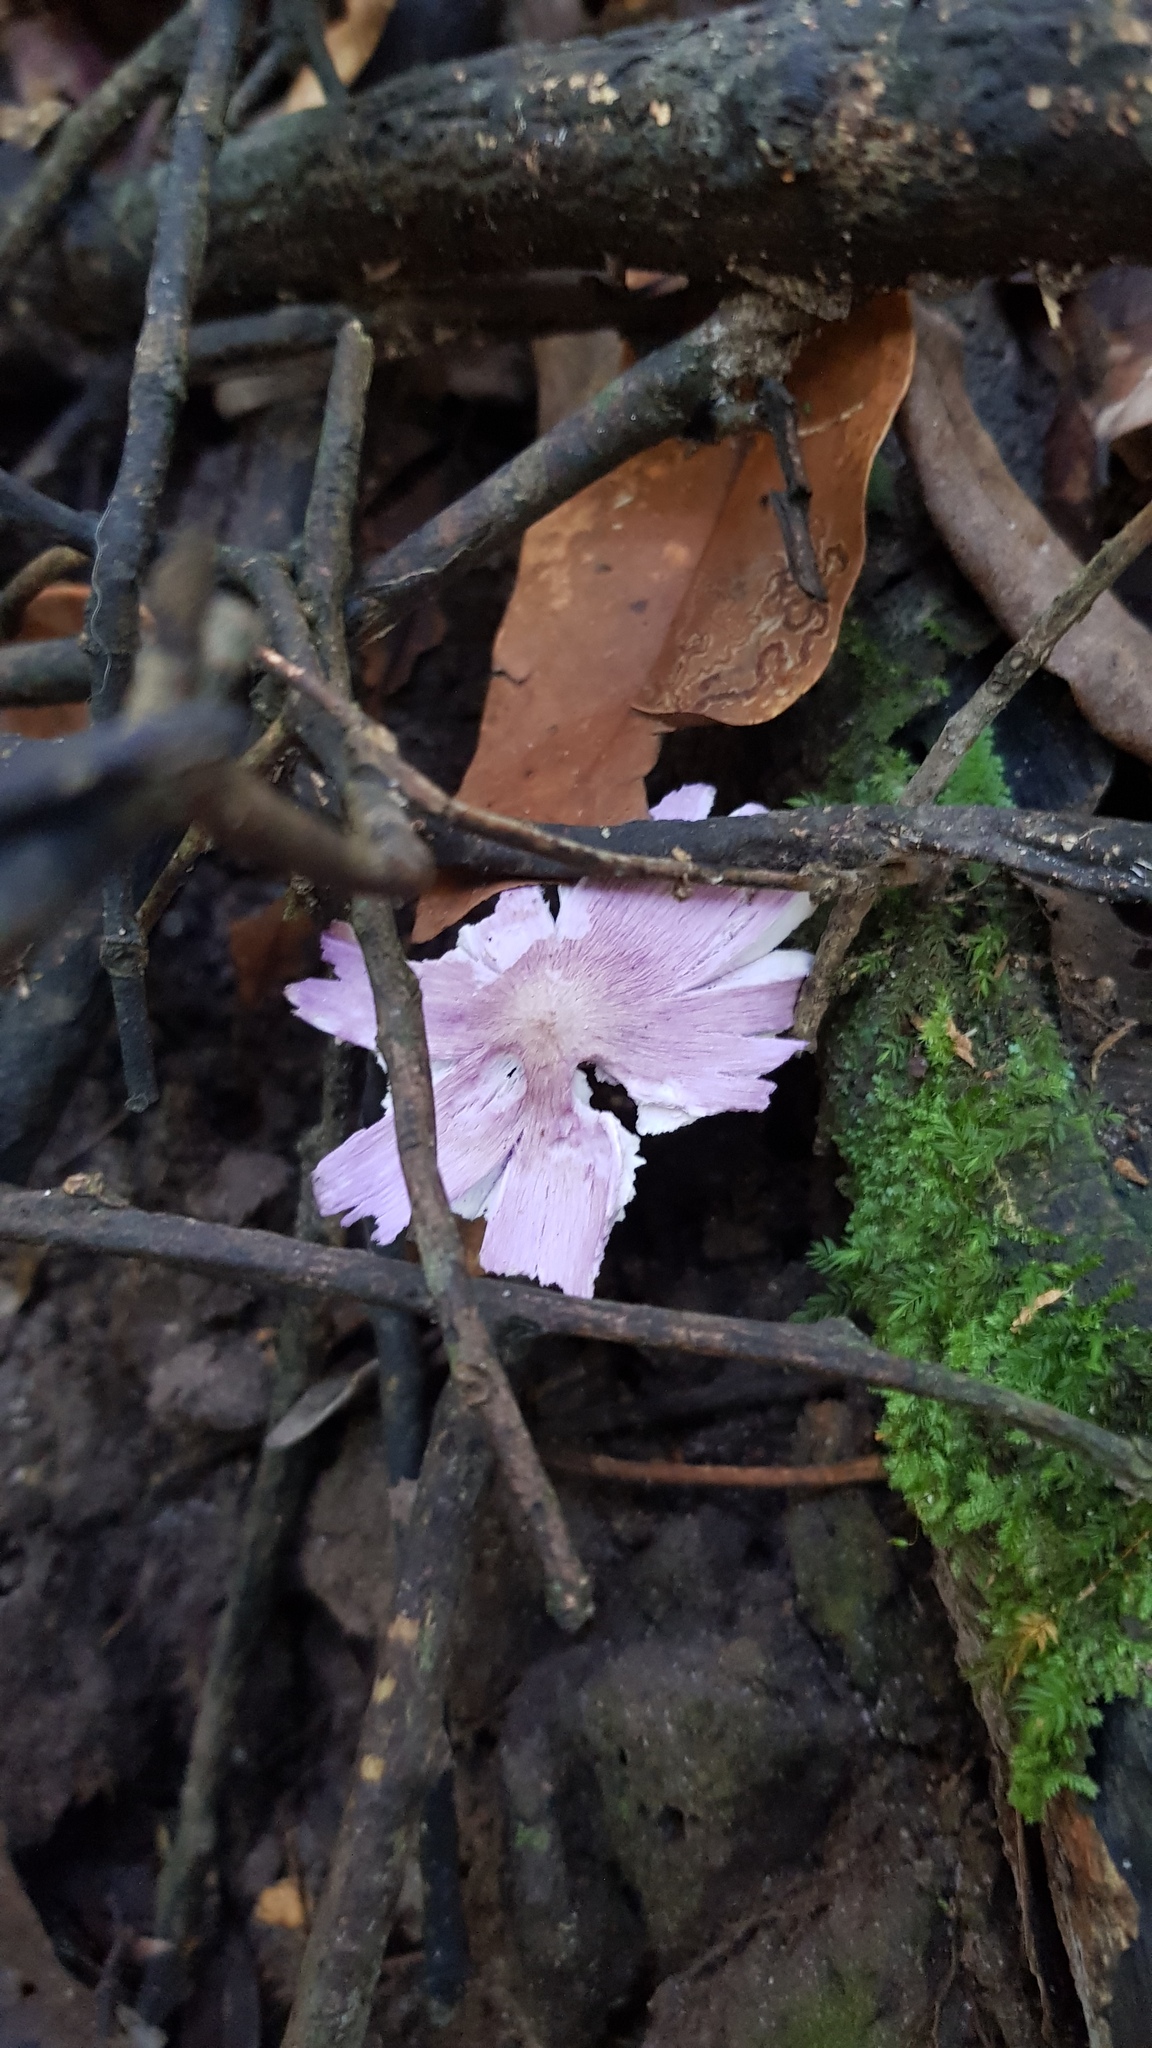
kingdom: Fungi
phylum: Basidiomycota
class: Agaricomycetes
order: Agaricales
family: Hygrophoraceae
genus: Porpolomopsis
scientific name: Porpolomopsis lewelliniae
